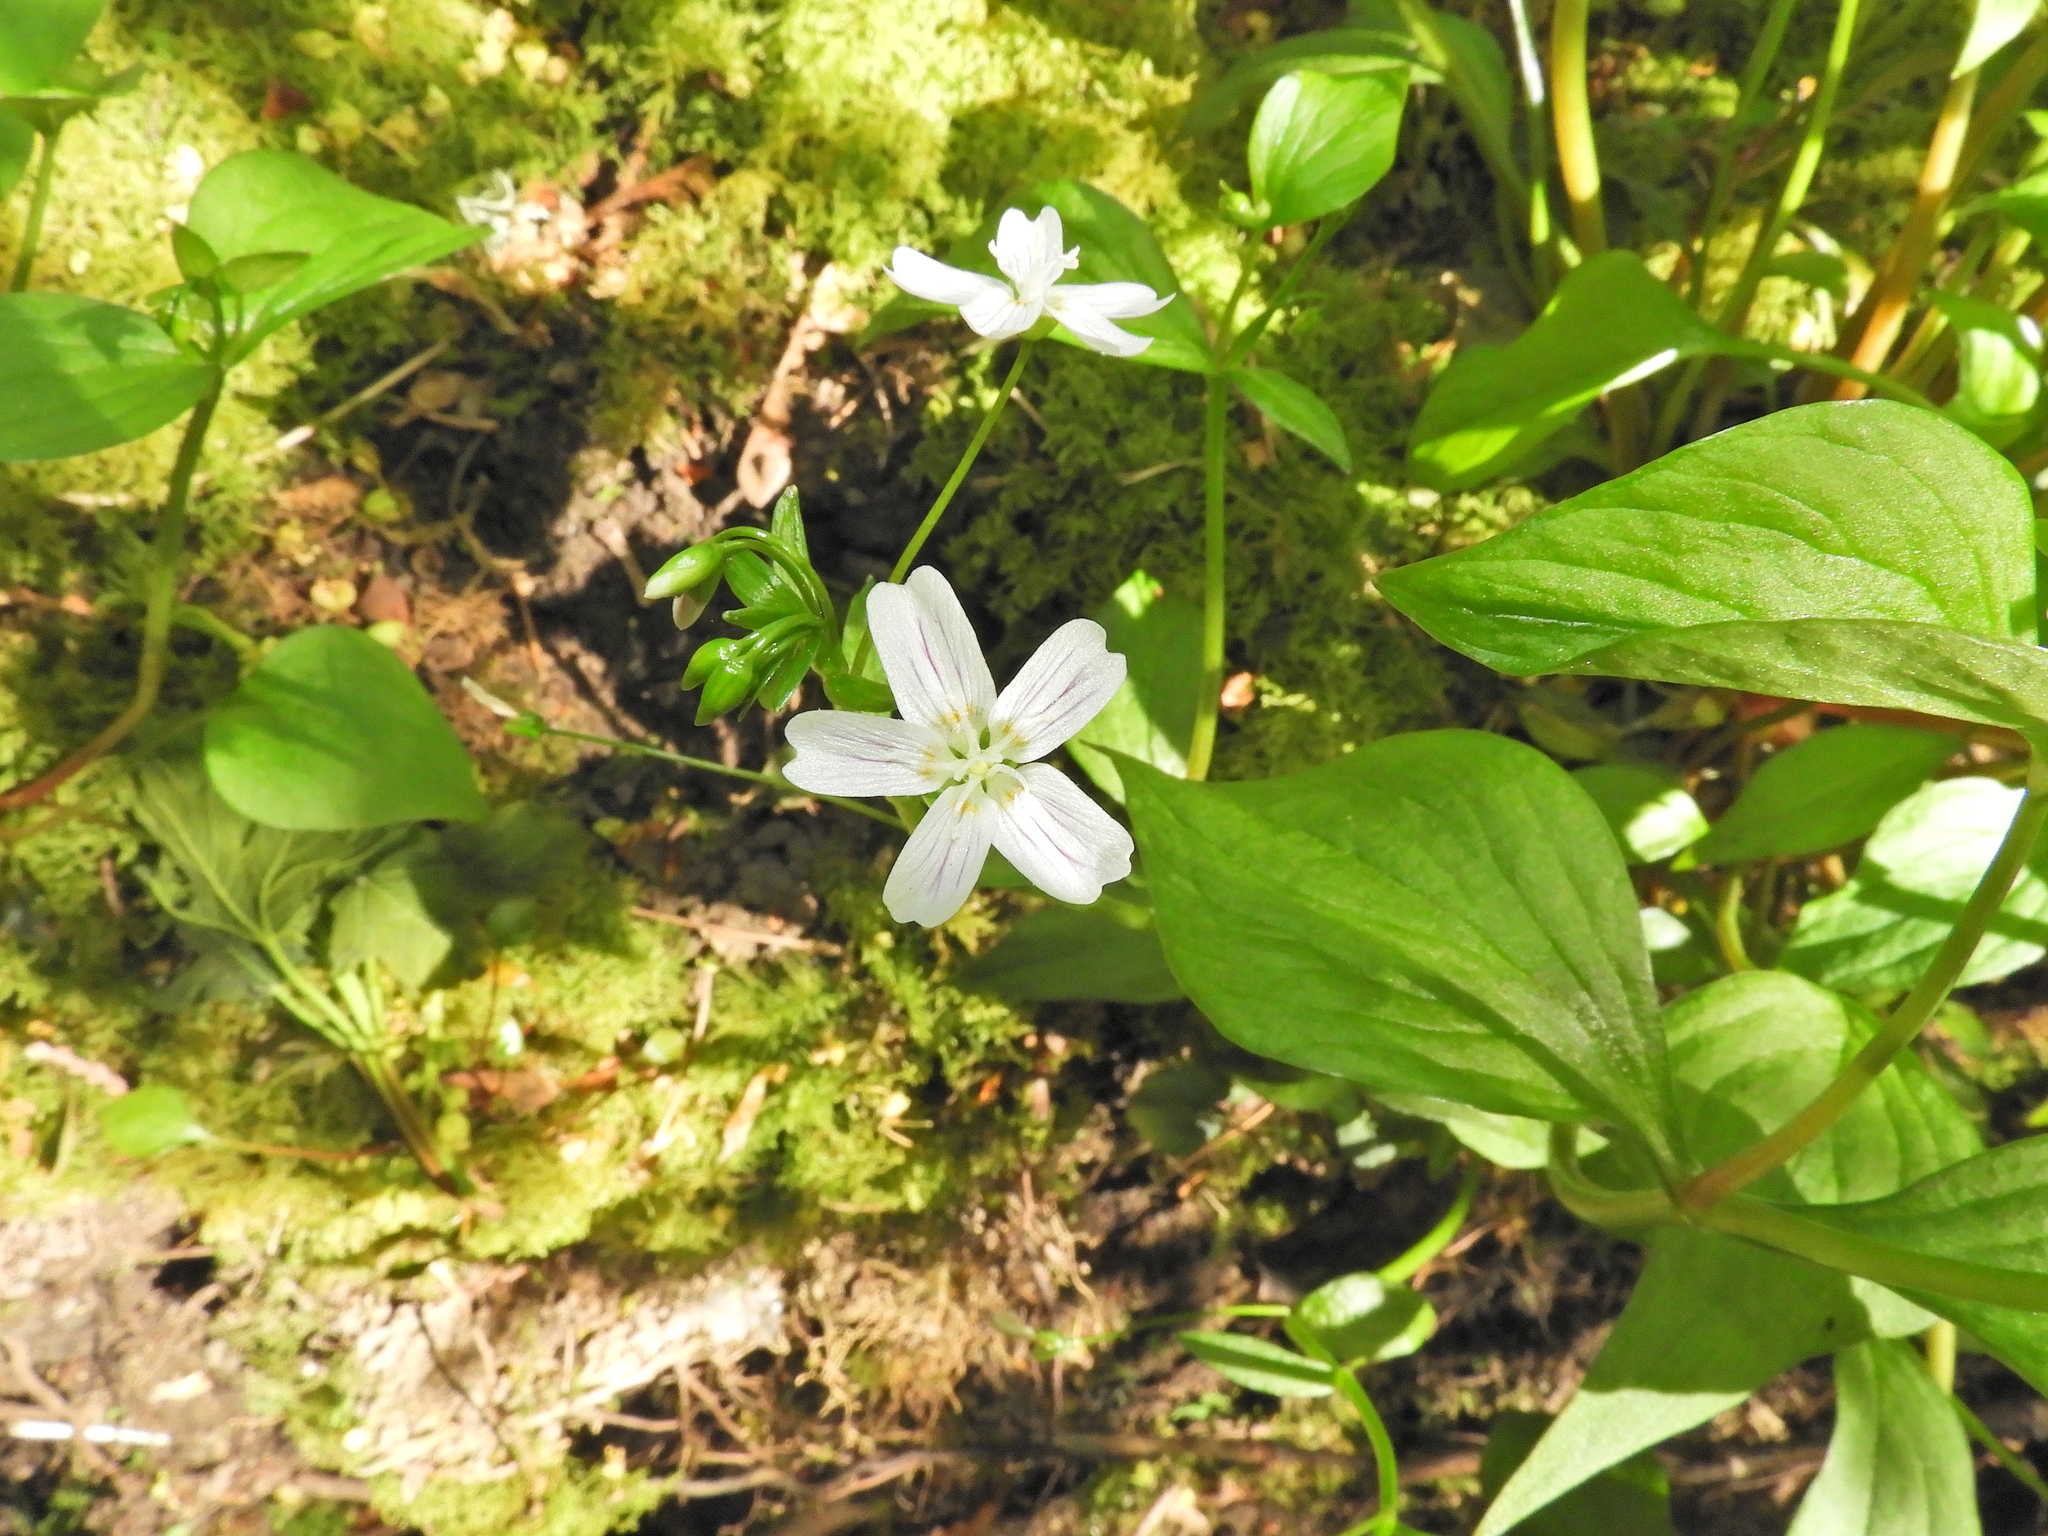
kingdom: Plantae
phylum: Tracheophyta
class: Magnoliopsida
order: Caryophyllales
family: Montiaceae
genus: Claytonia
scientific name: Claytonia sibirica
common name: Pink purslane
